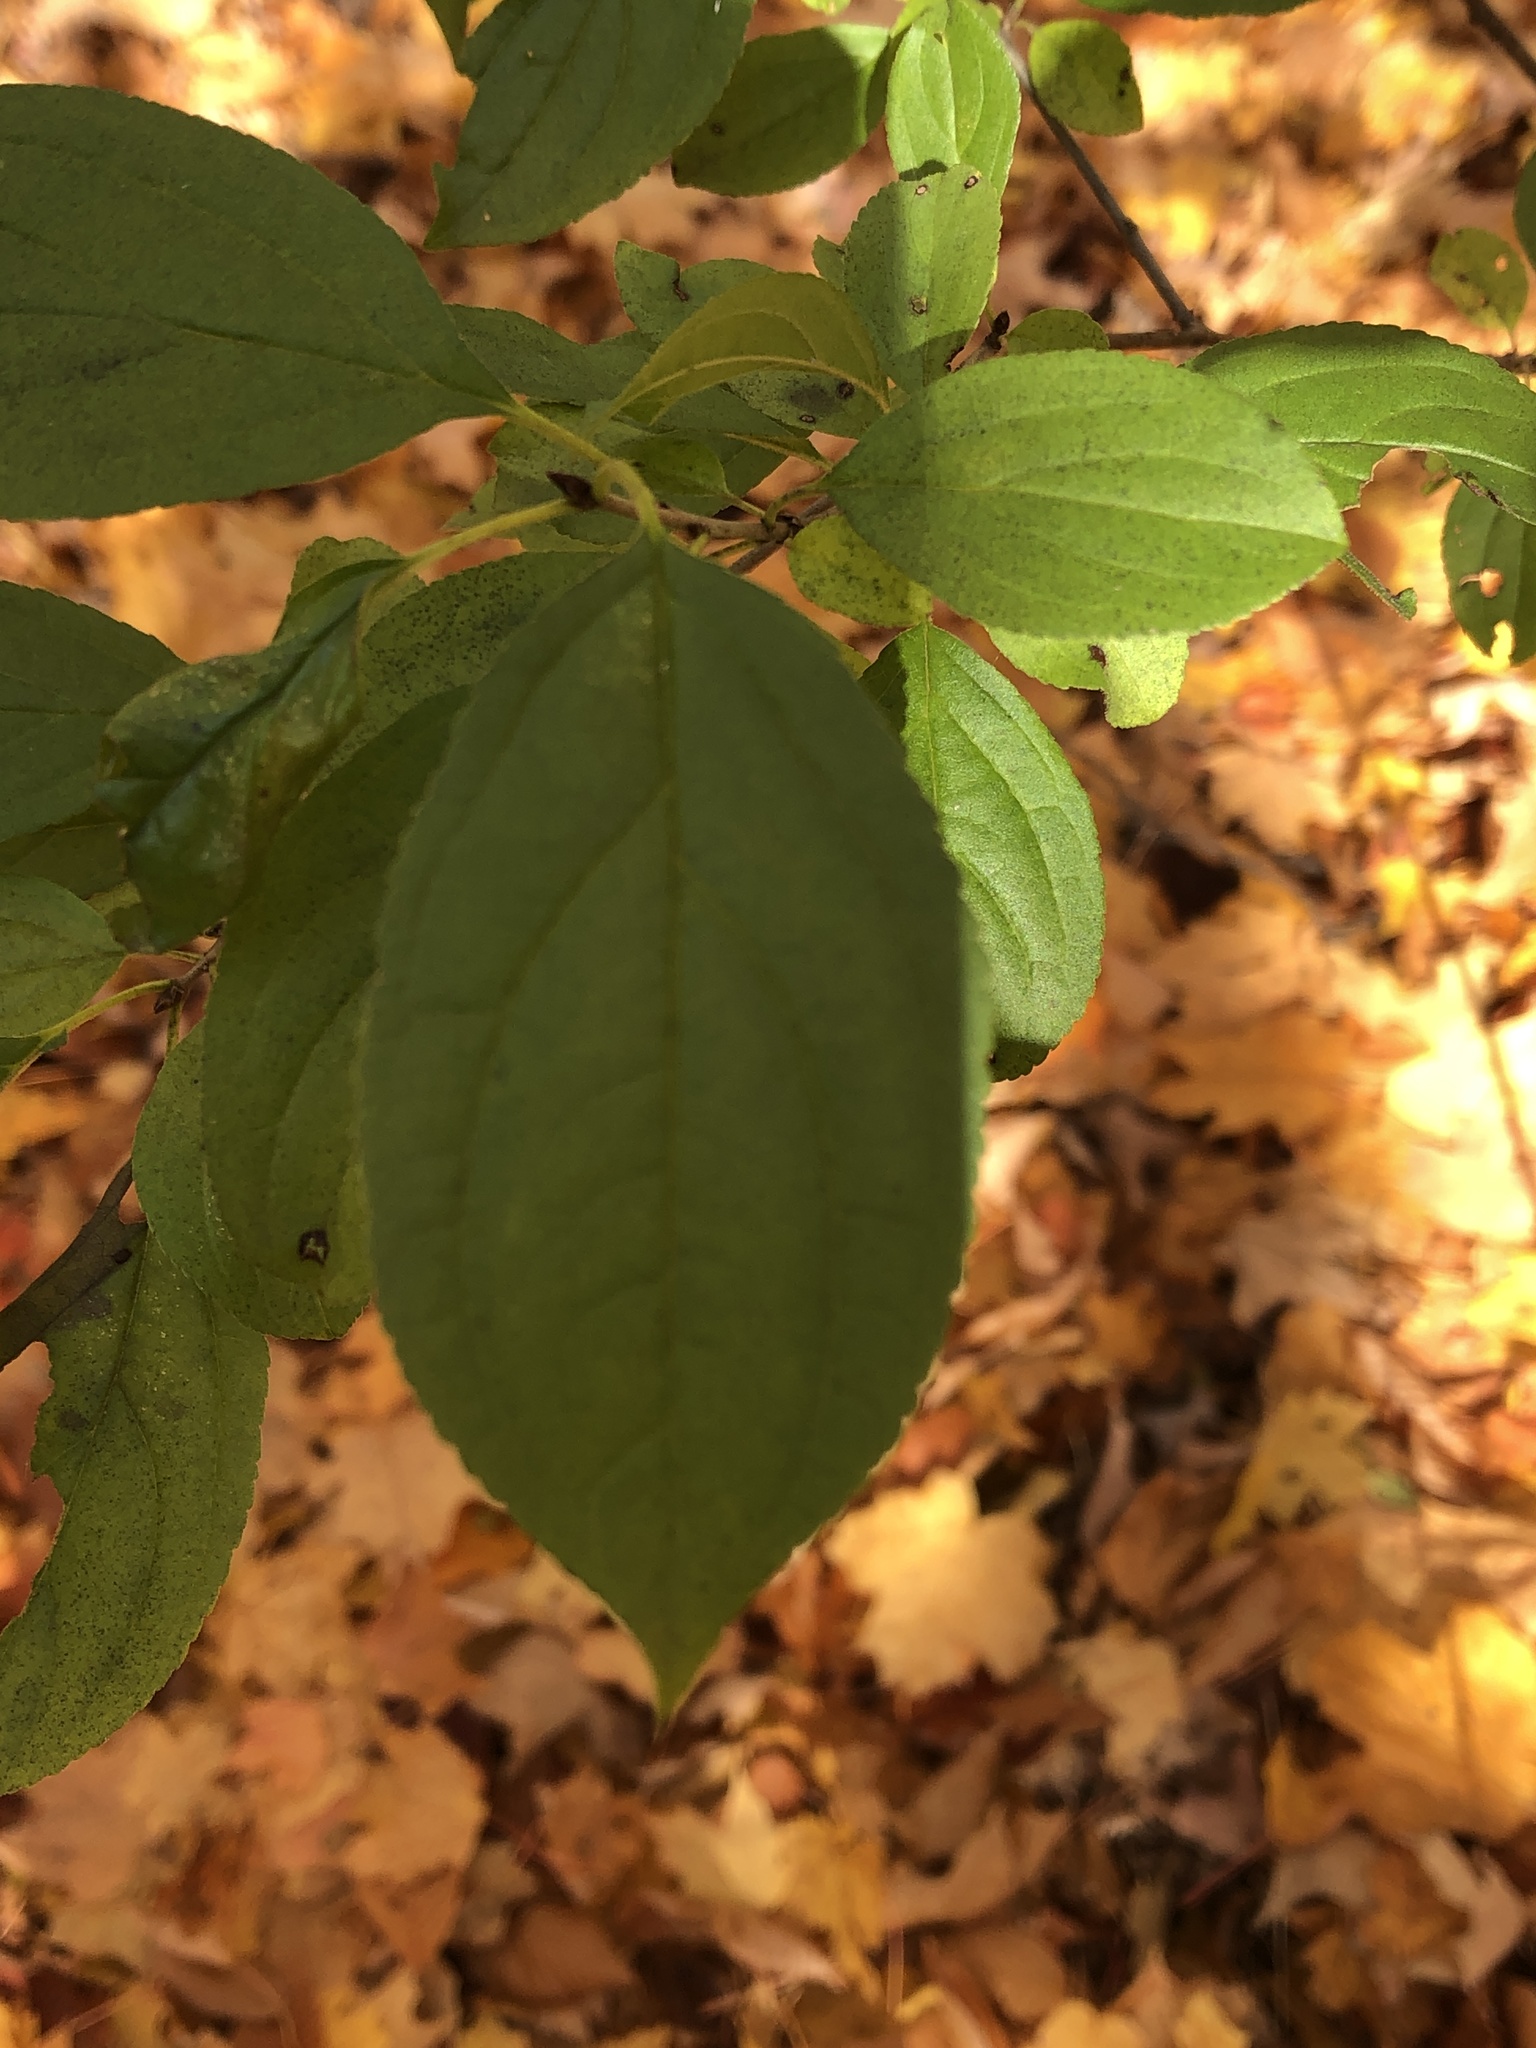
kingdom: Plantae
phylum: Tracheophyta
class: Magnoliopsida
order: Rosales
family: Rhamnaceae
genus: Rhamnus
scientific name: Rhamnus cathartica
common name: Common buckthorn
